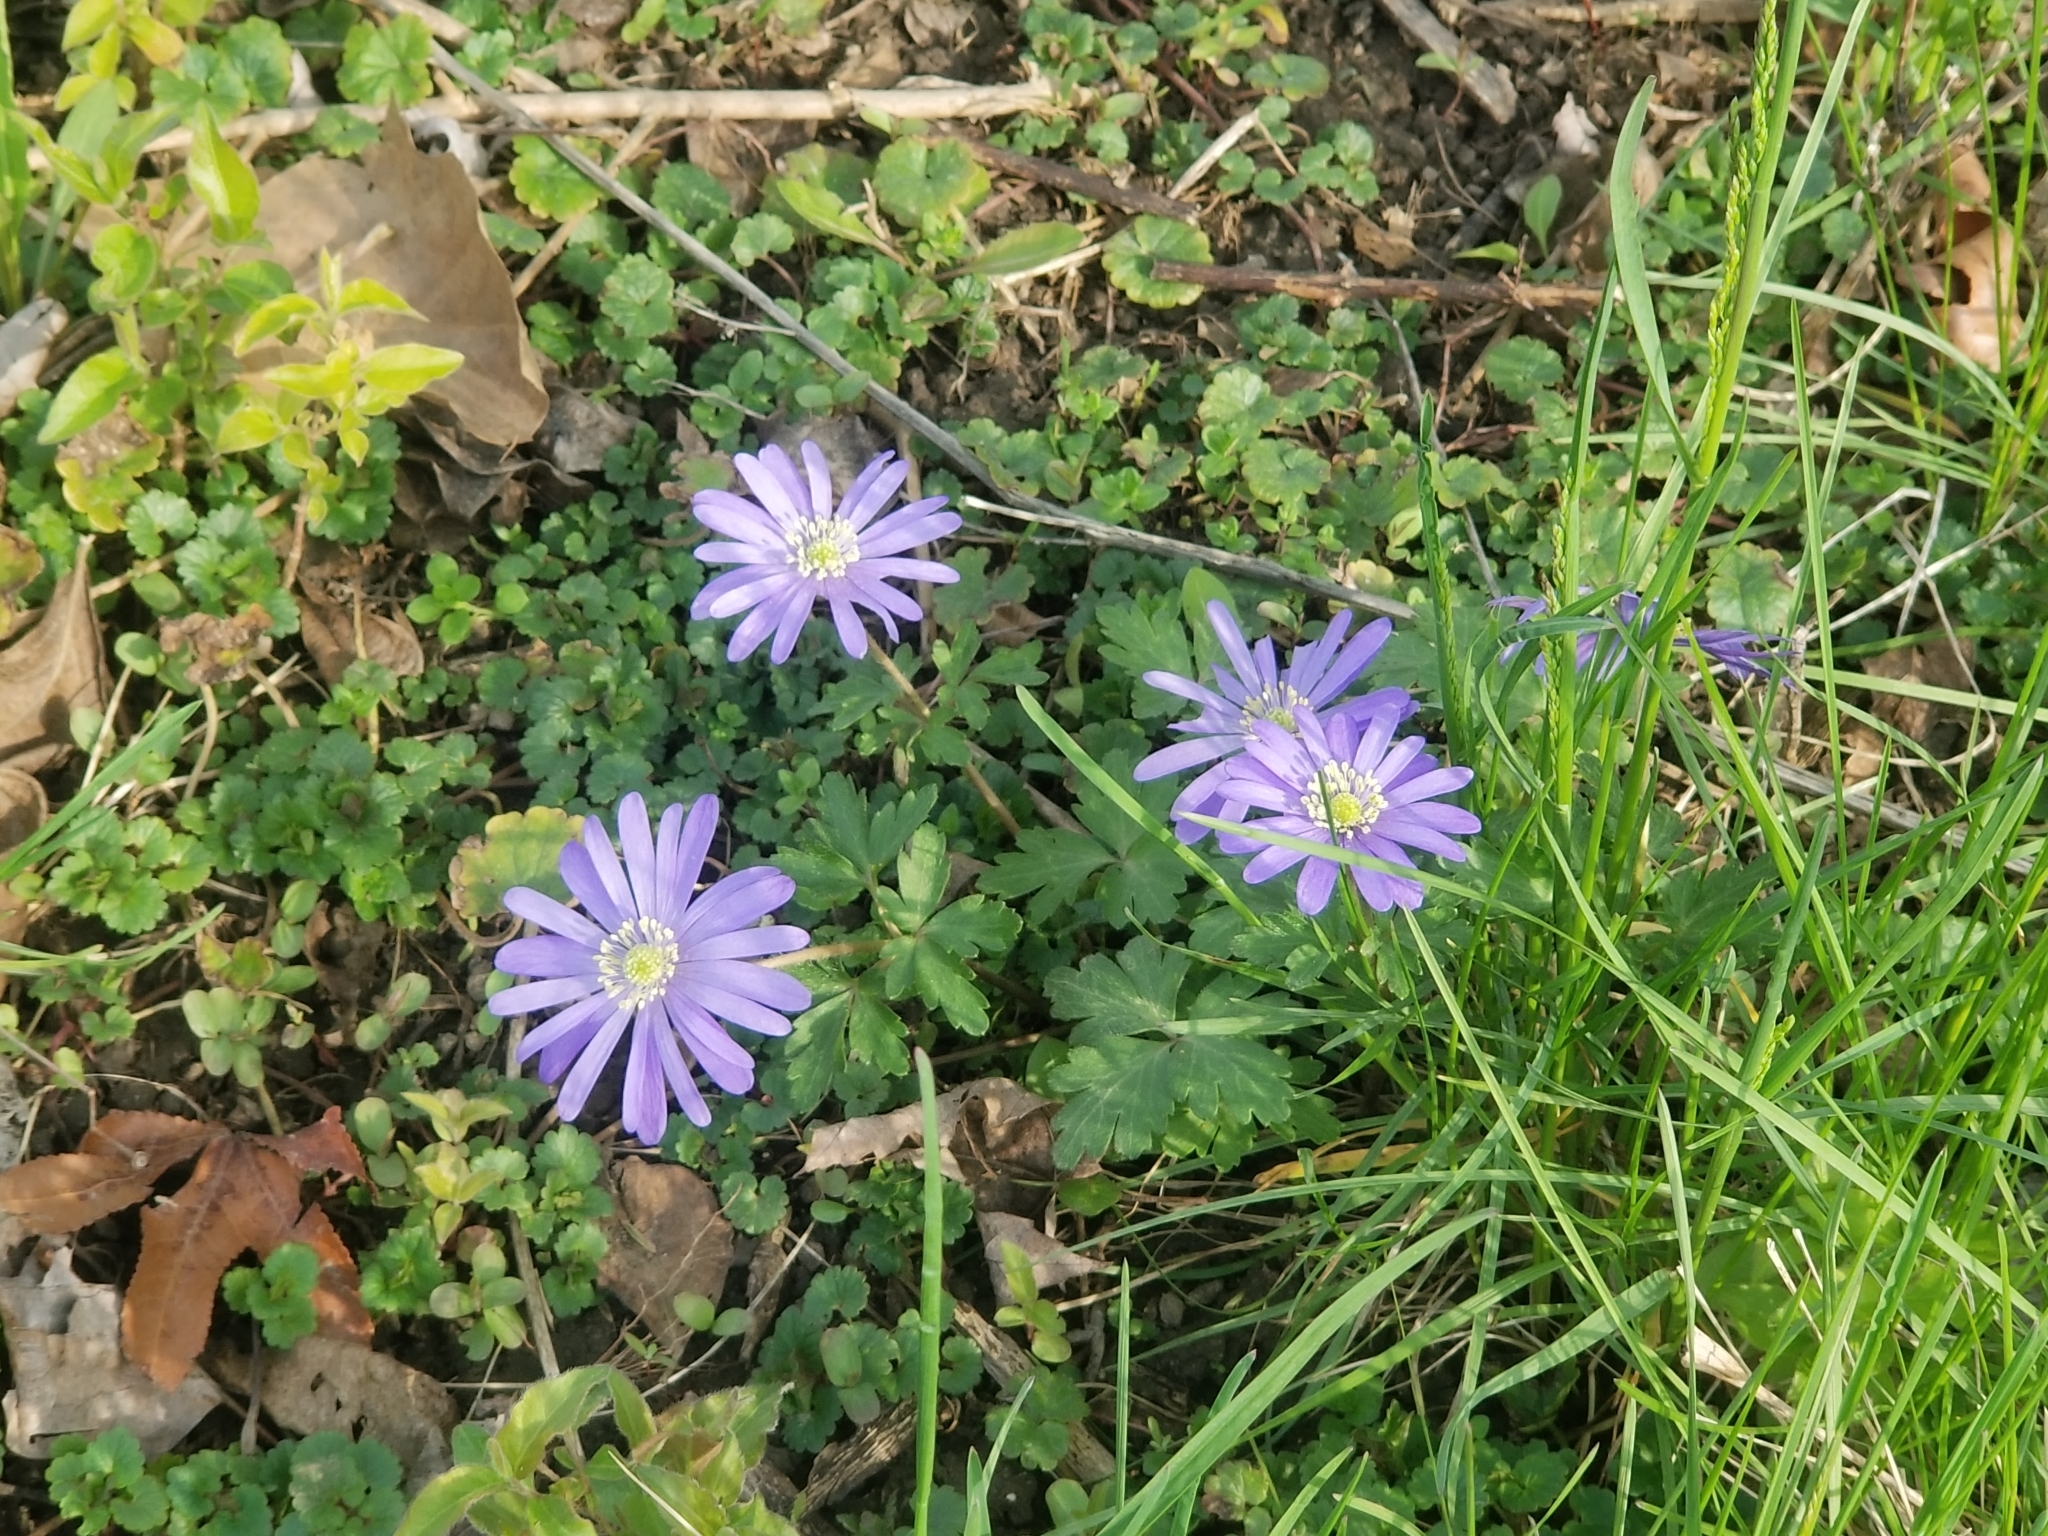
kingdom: Plantae
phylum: Tracheophyta
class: Magnoliopsida
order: Ranunculales
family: Ranunculaceae
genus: Anemone
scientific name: Anemone blanda
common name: Balkan anemone
